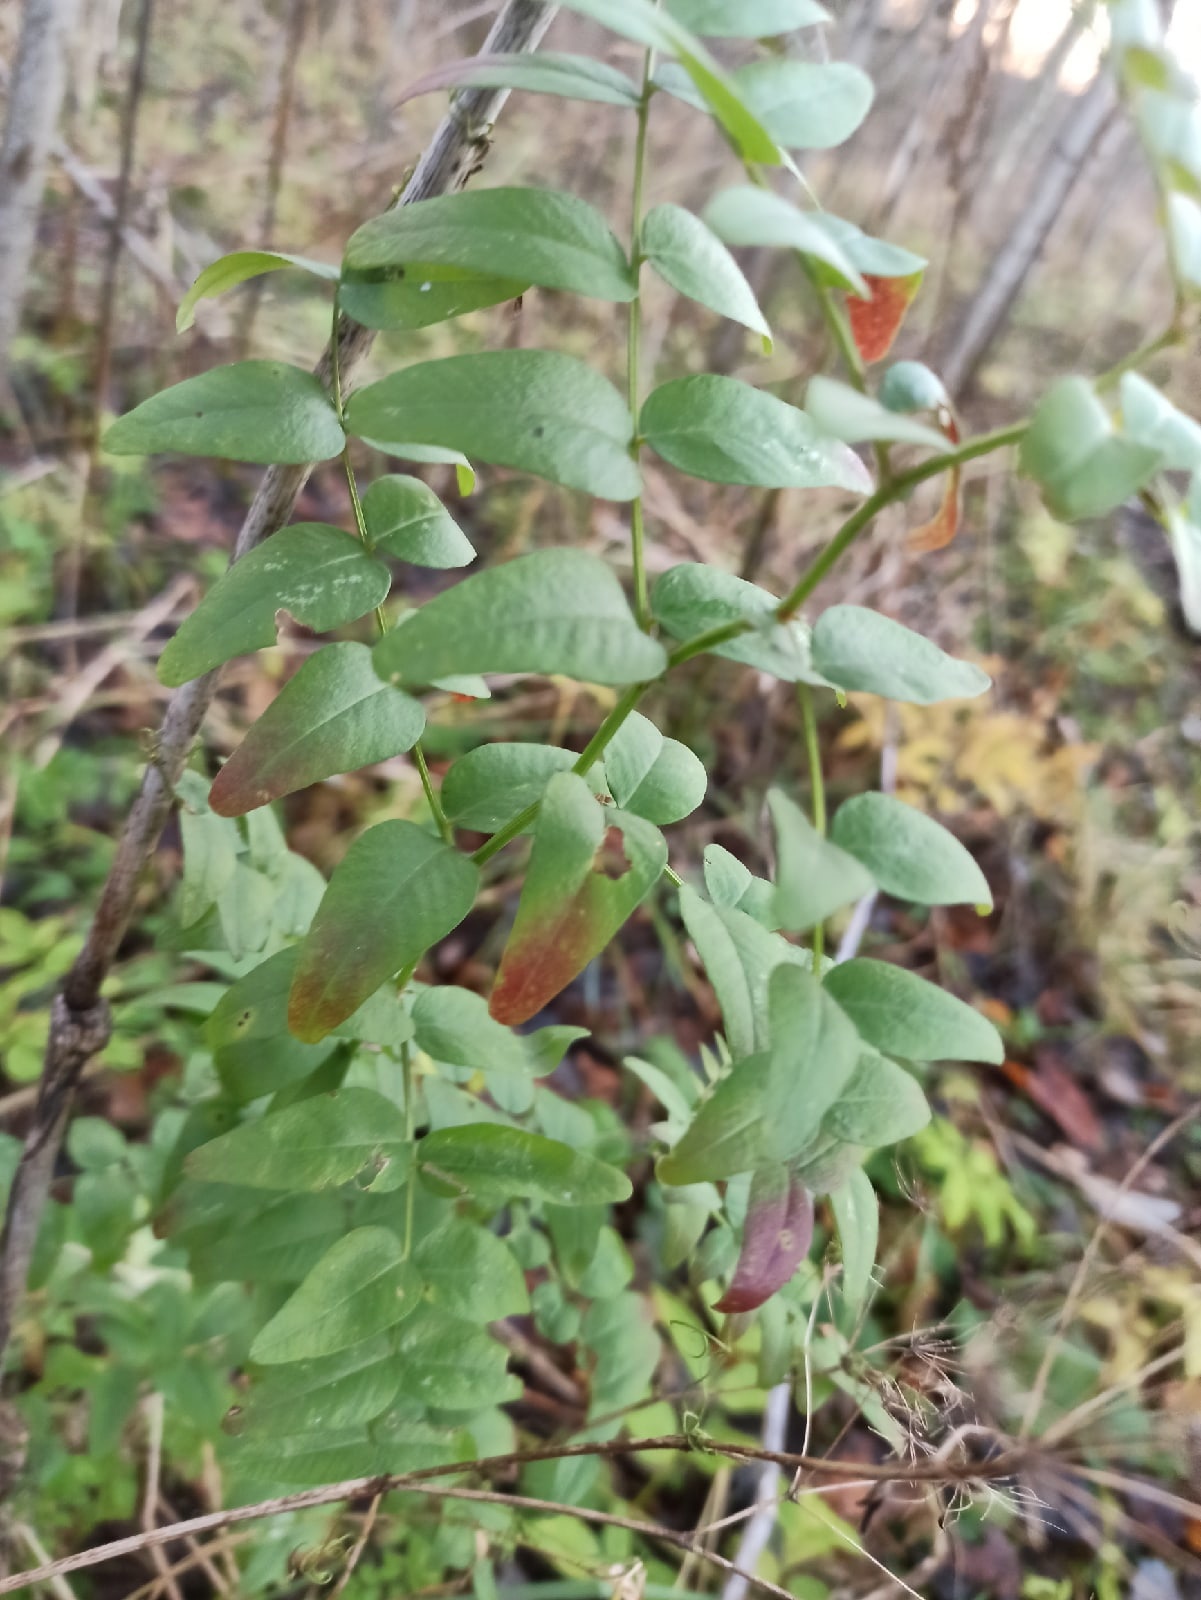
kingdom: Plantae
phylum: Tracheophyta
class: Magnoliopsida
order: Fabales
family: Fabaceae
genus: Vicia
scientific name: Vicia sepium
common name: Bush vetch
